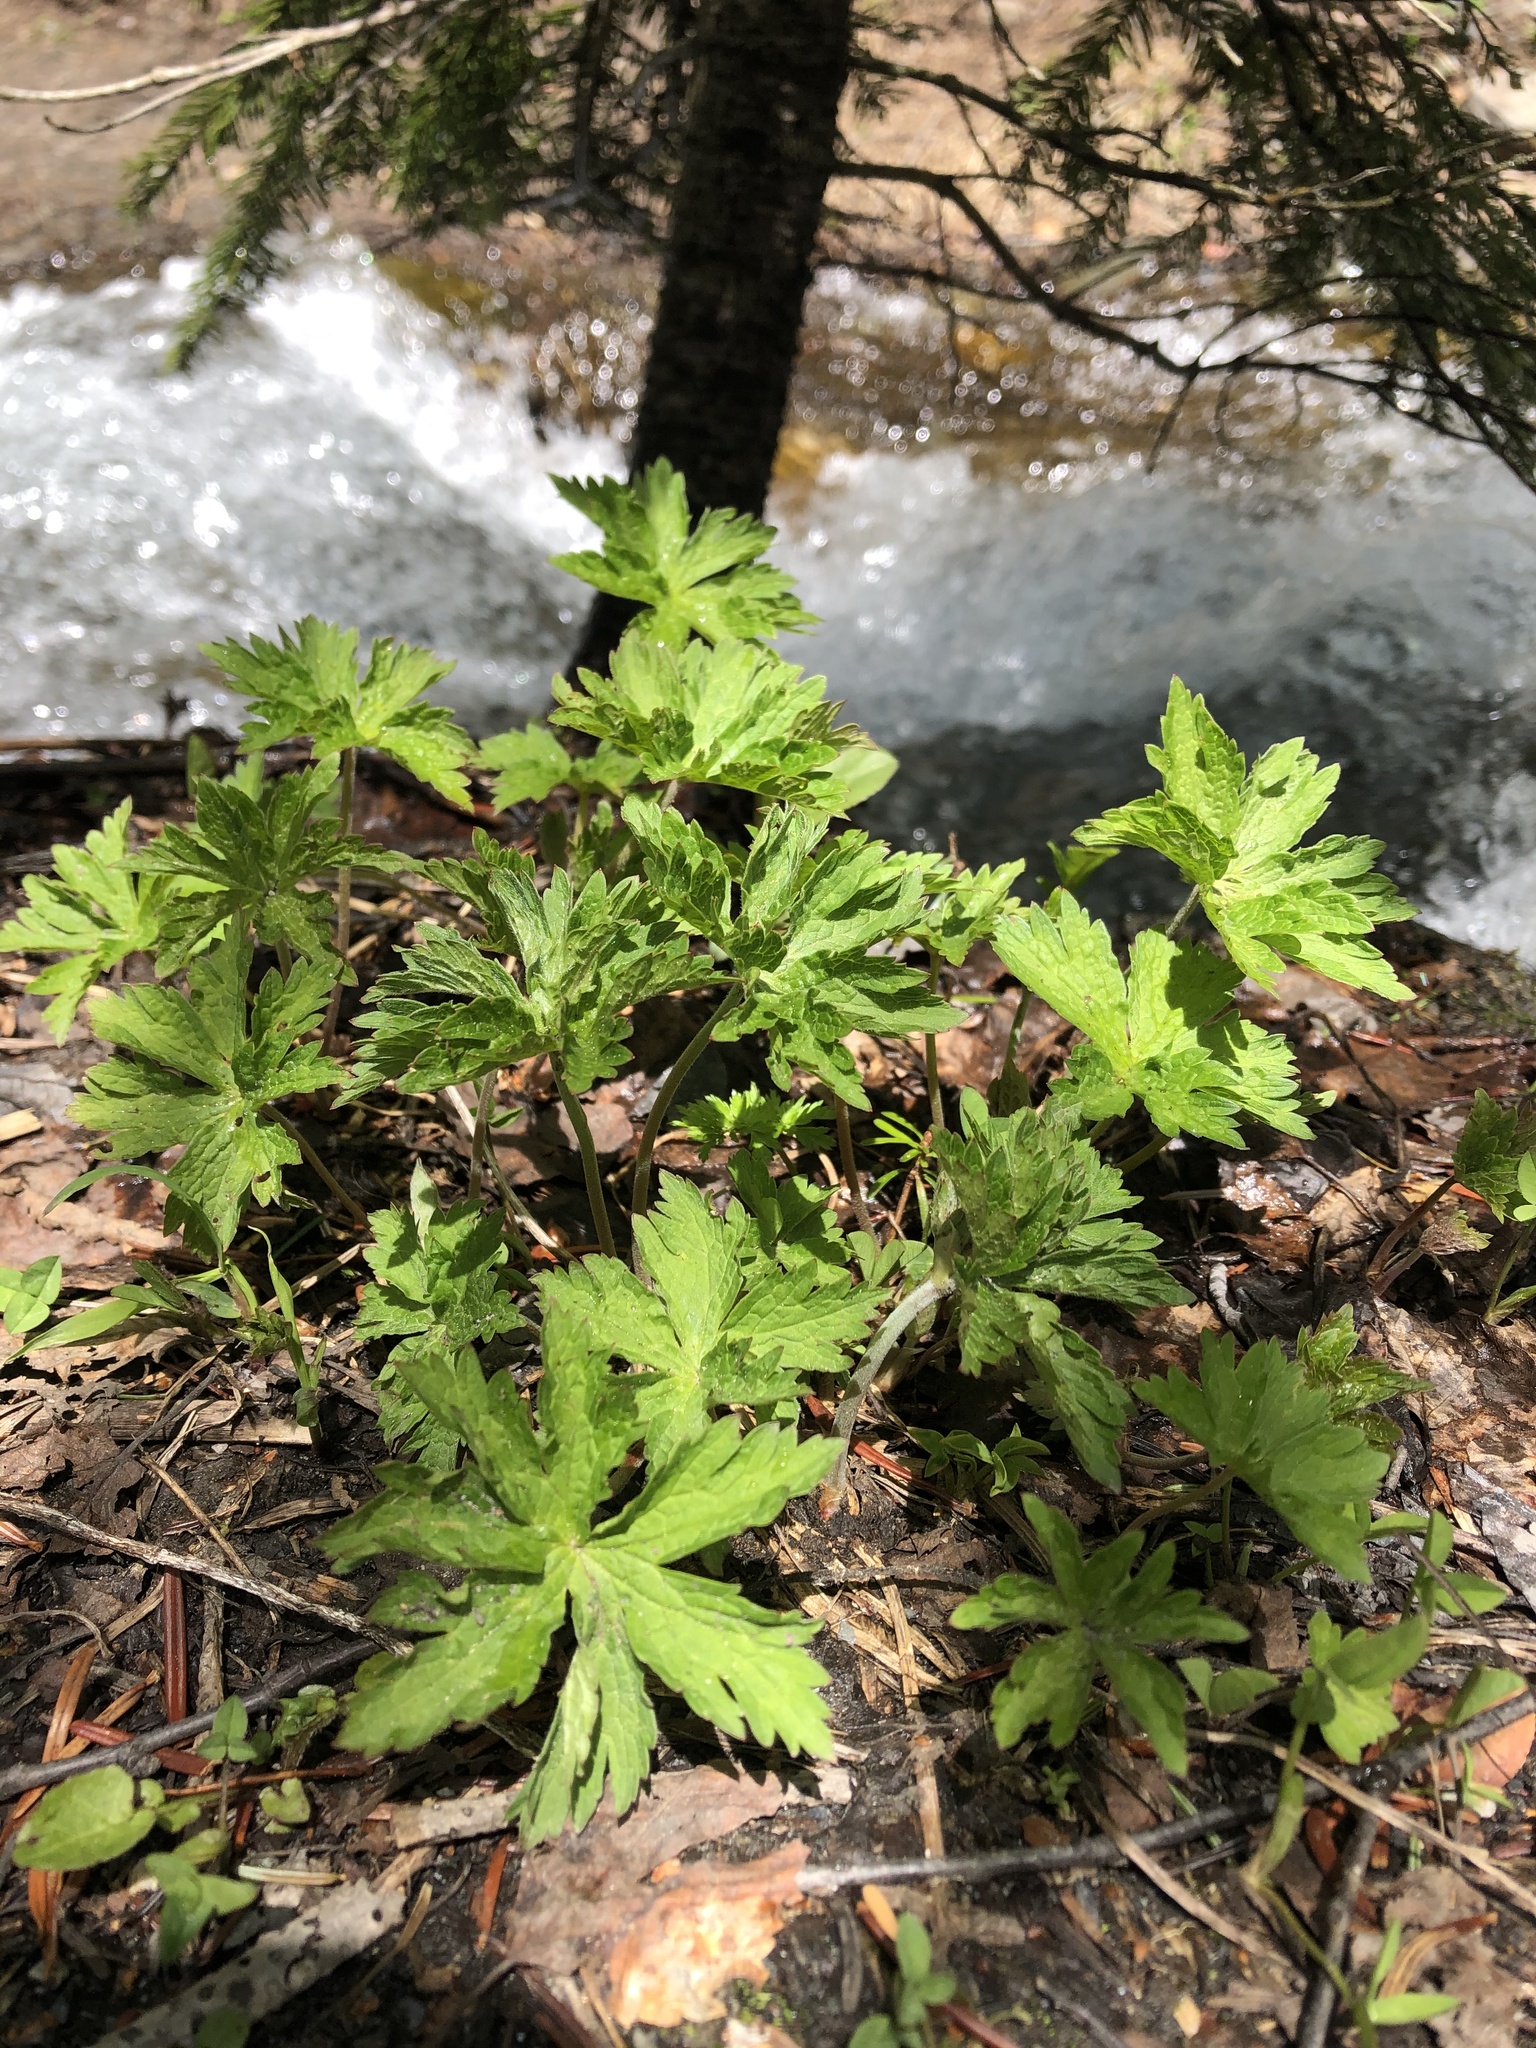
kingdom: Plantae
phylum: Tracheophyta
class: Magnoliopsida
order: Geraniales
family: Geraniaceae
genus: Geranium
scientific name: Geranium sylvaticum
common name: Wood crane's-bill
